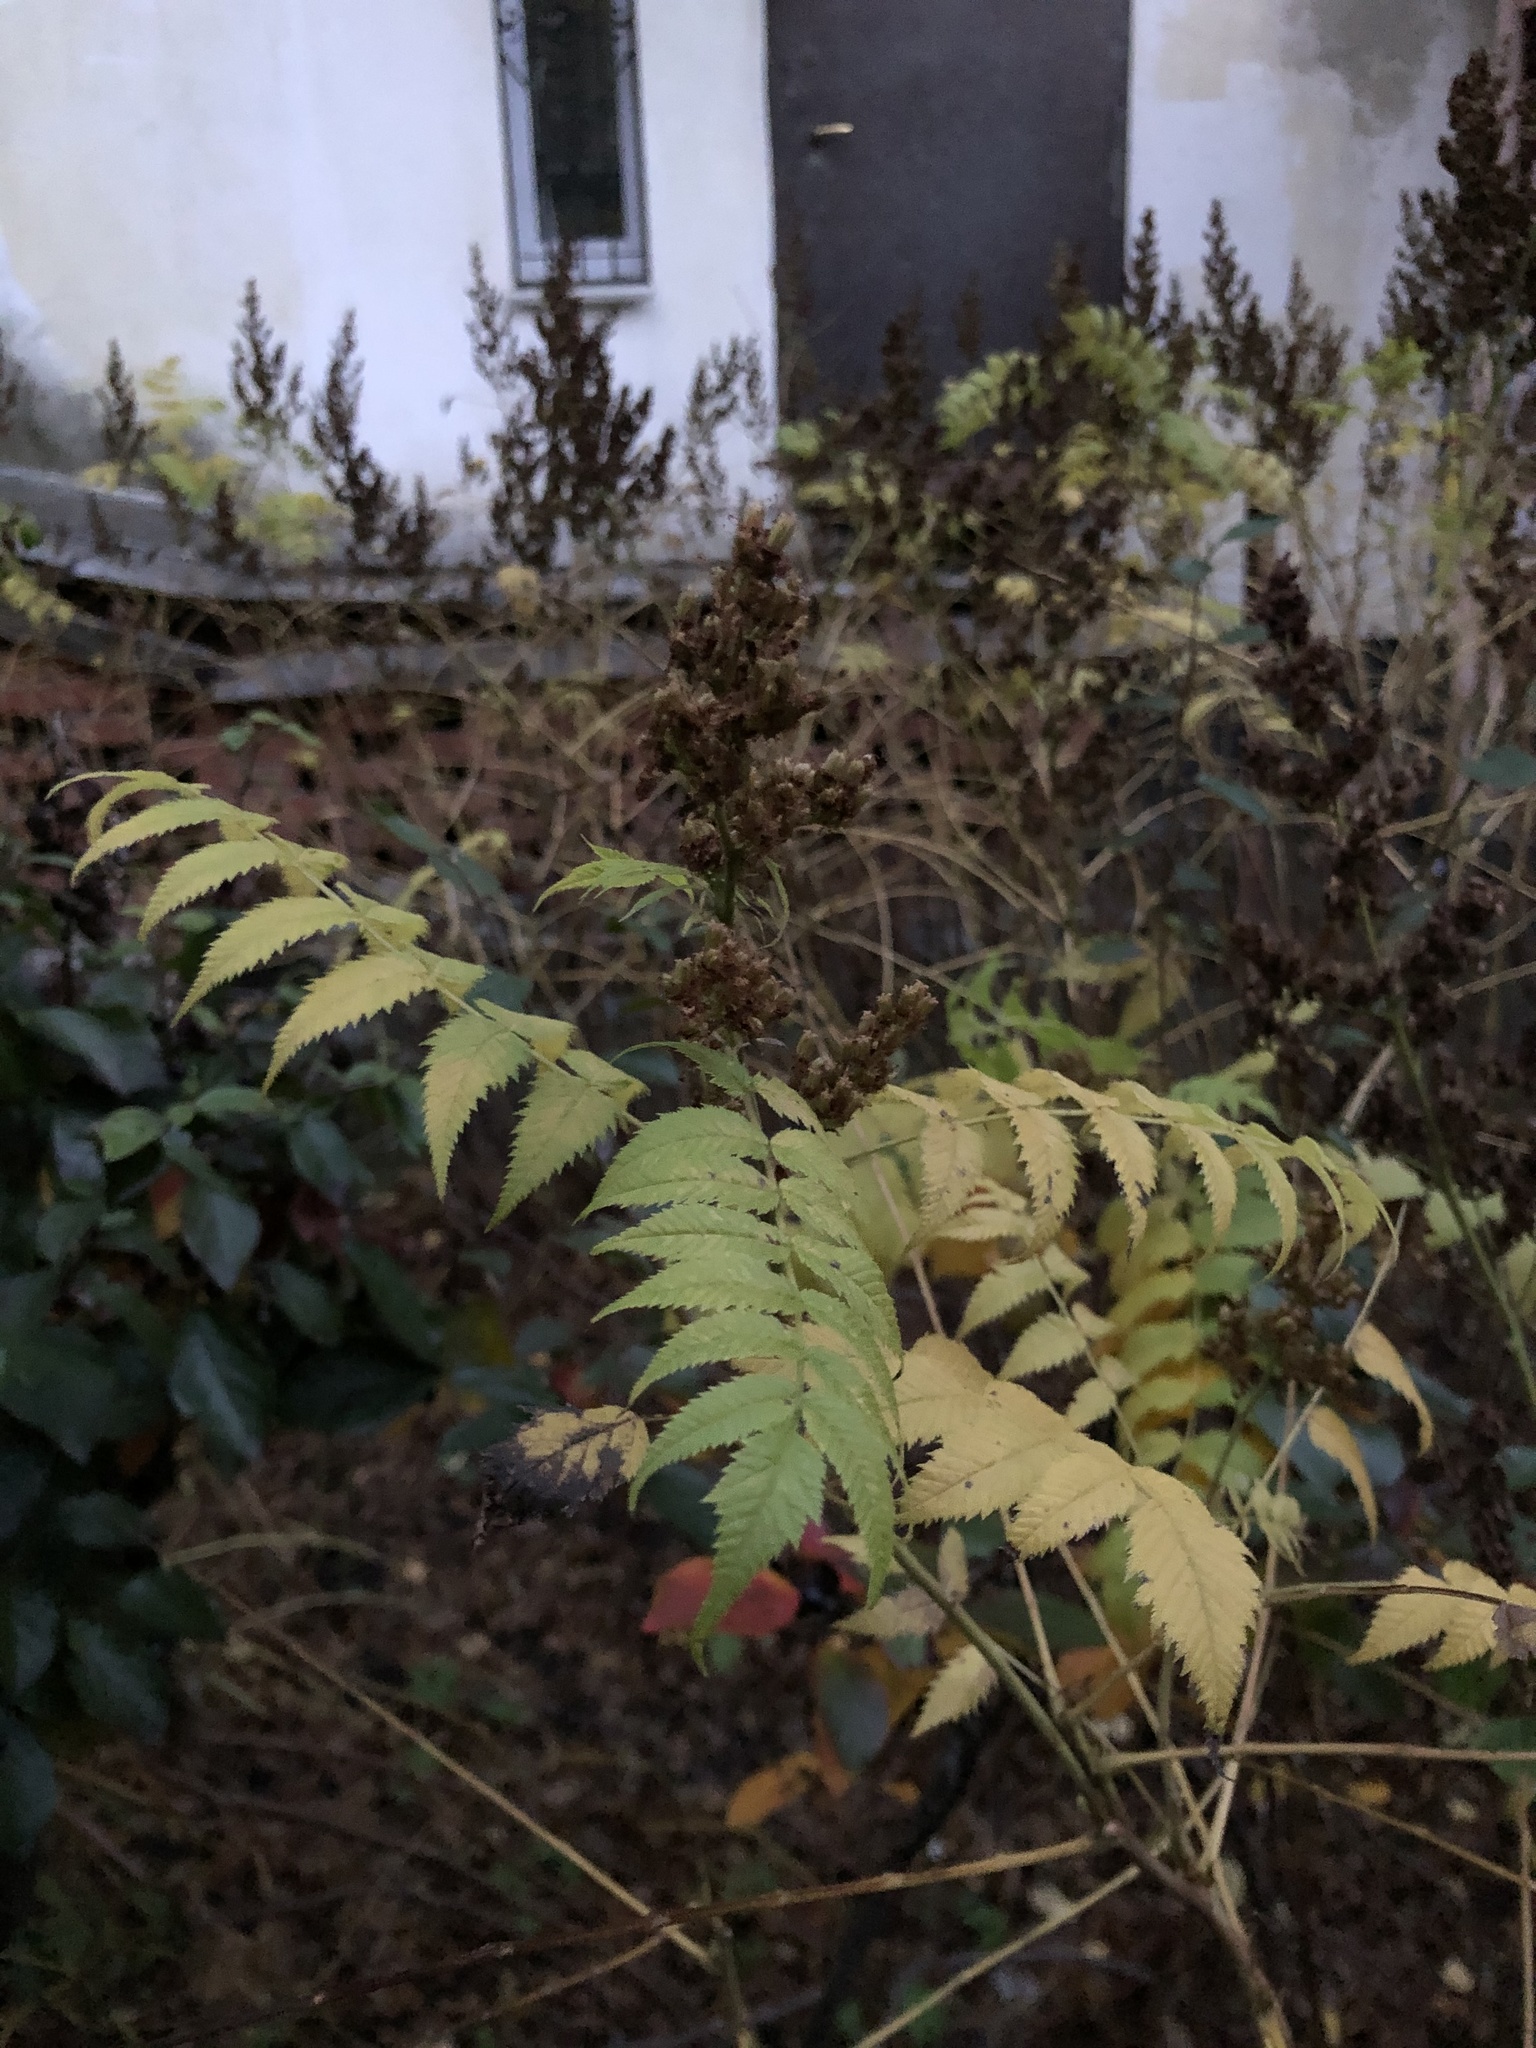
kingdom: Plantae
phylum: Tracheophyta
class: Magnoliopsida
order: Rosales
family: Rosaceae
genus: Sorbaria
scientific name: Sorbaria sorbifolia
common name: False spiraea
